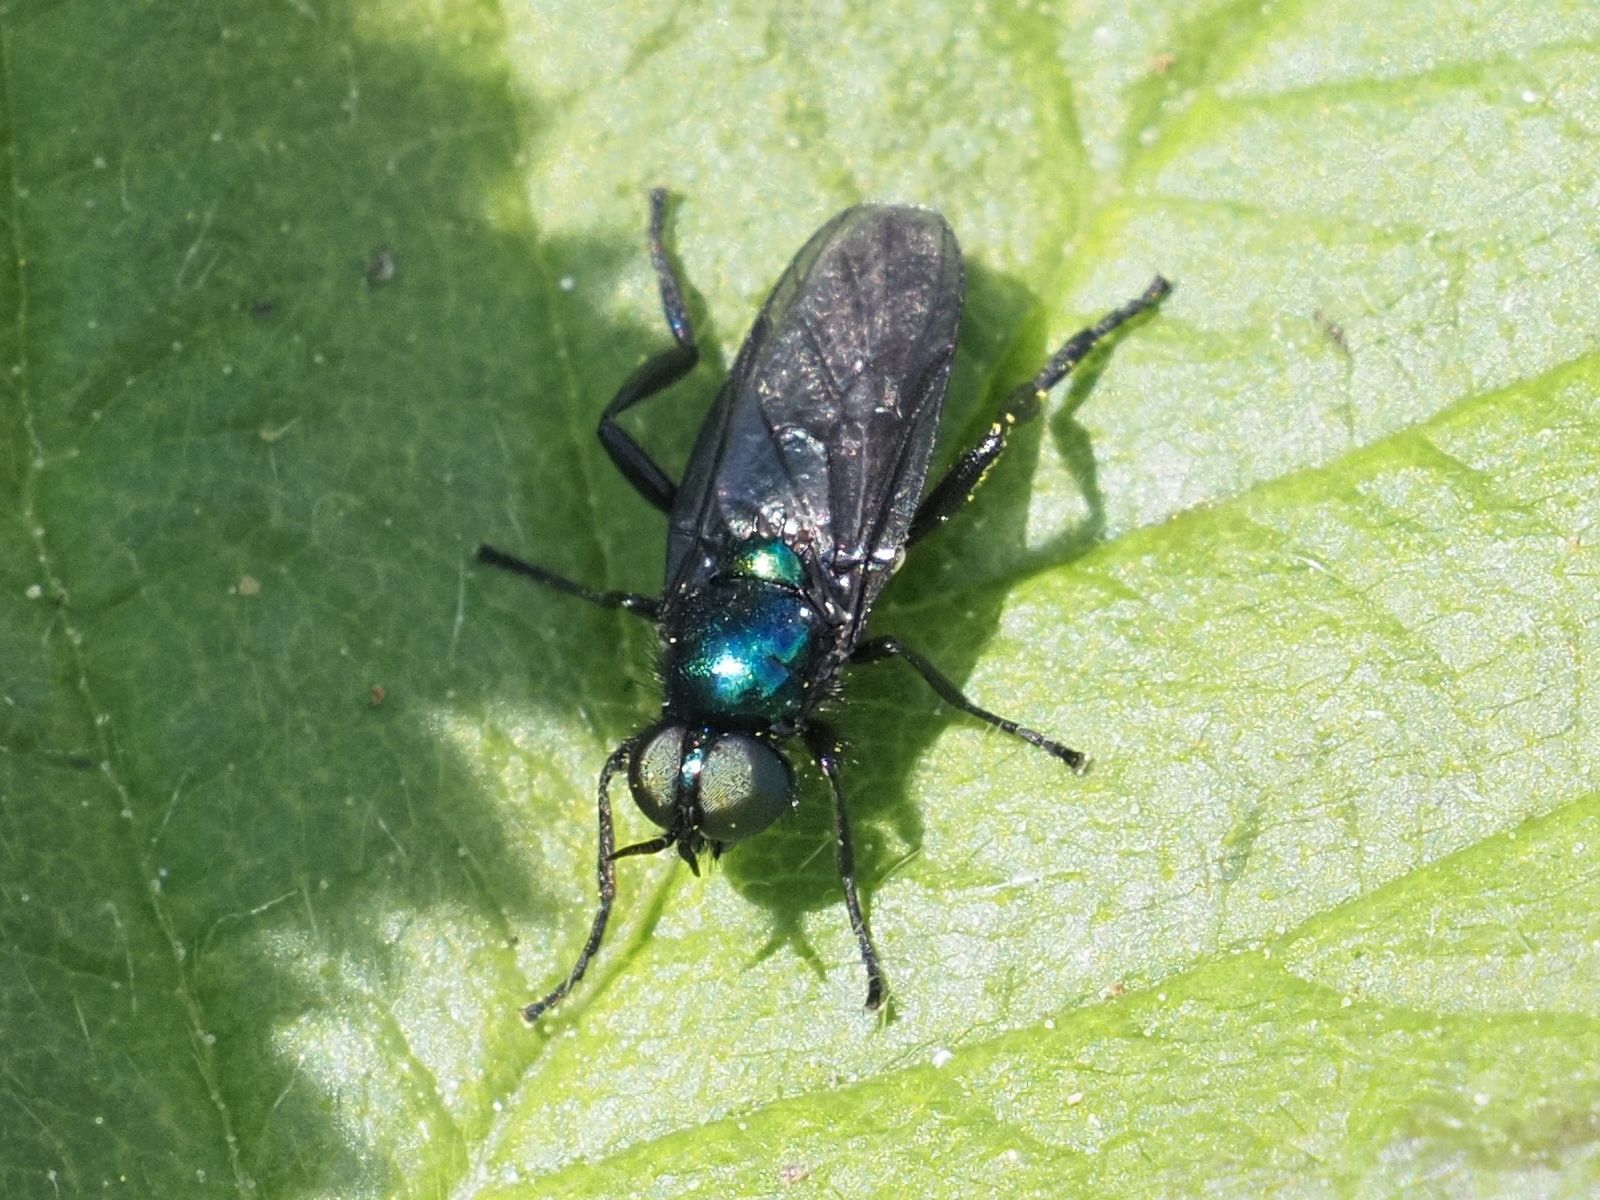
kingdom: Animalia
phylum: Arthropoda
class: Insecta
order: Diptera
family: Stratiomyidae
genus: Actina
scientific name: Actina chalybea
